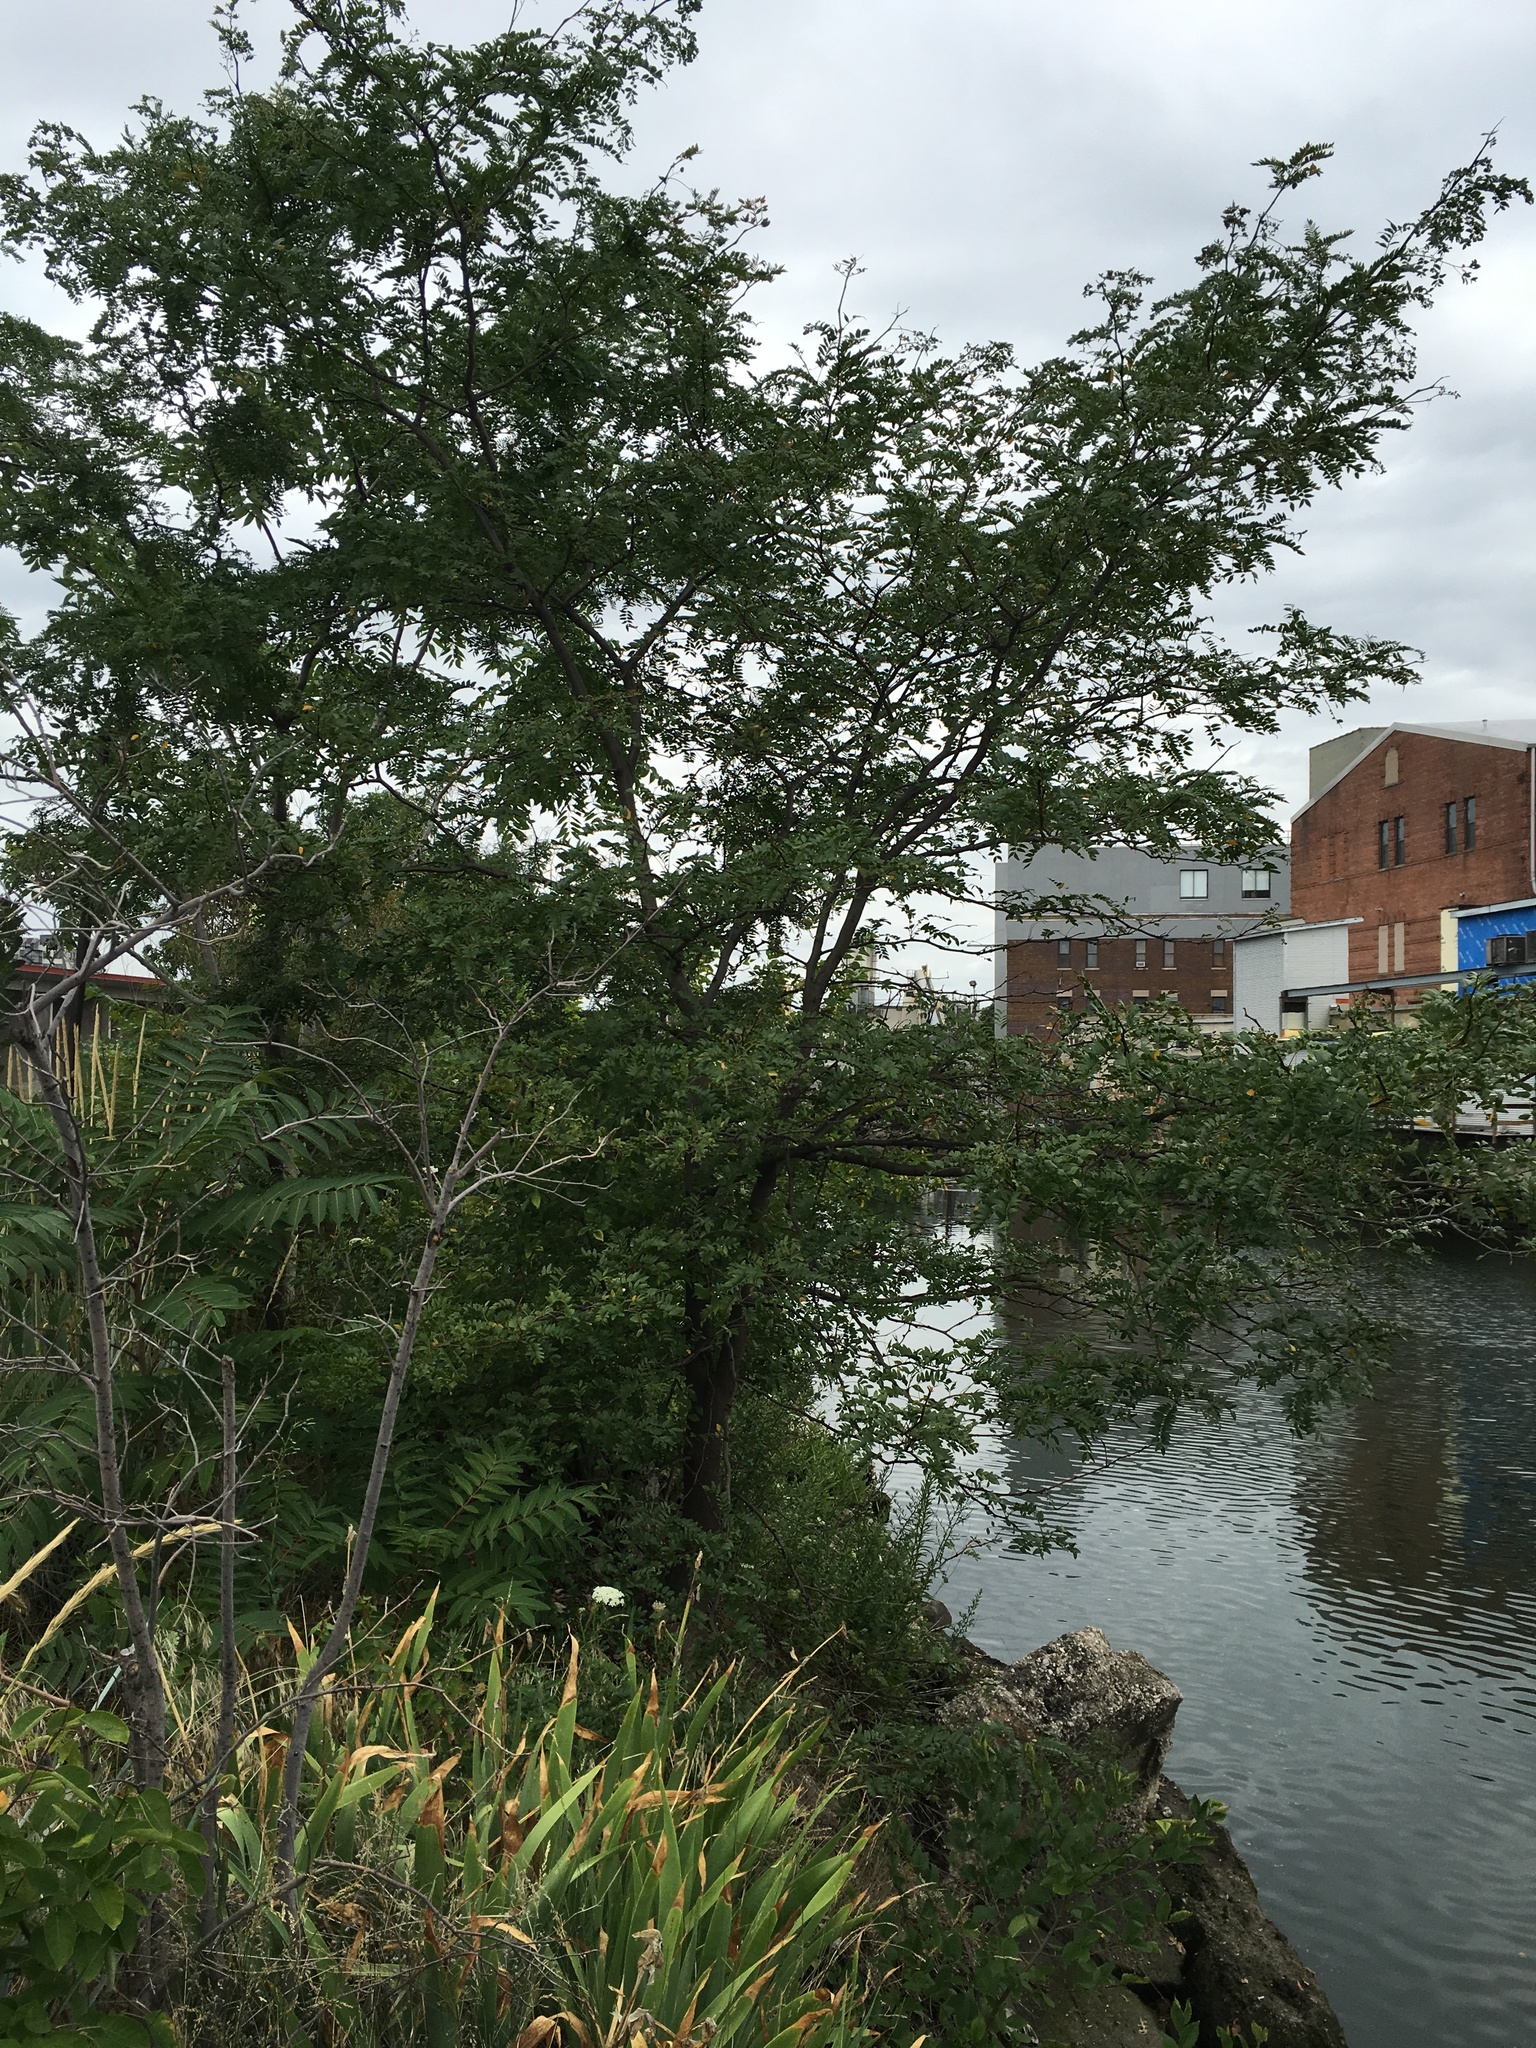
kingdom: Plantae
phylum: Tracheophyta
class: Magnoliopsida
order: Fabales
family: Fabaceae
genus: Gleditsia
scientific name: Gleditsia triacanthos
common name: Common honeylocust
